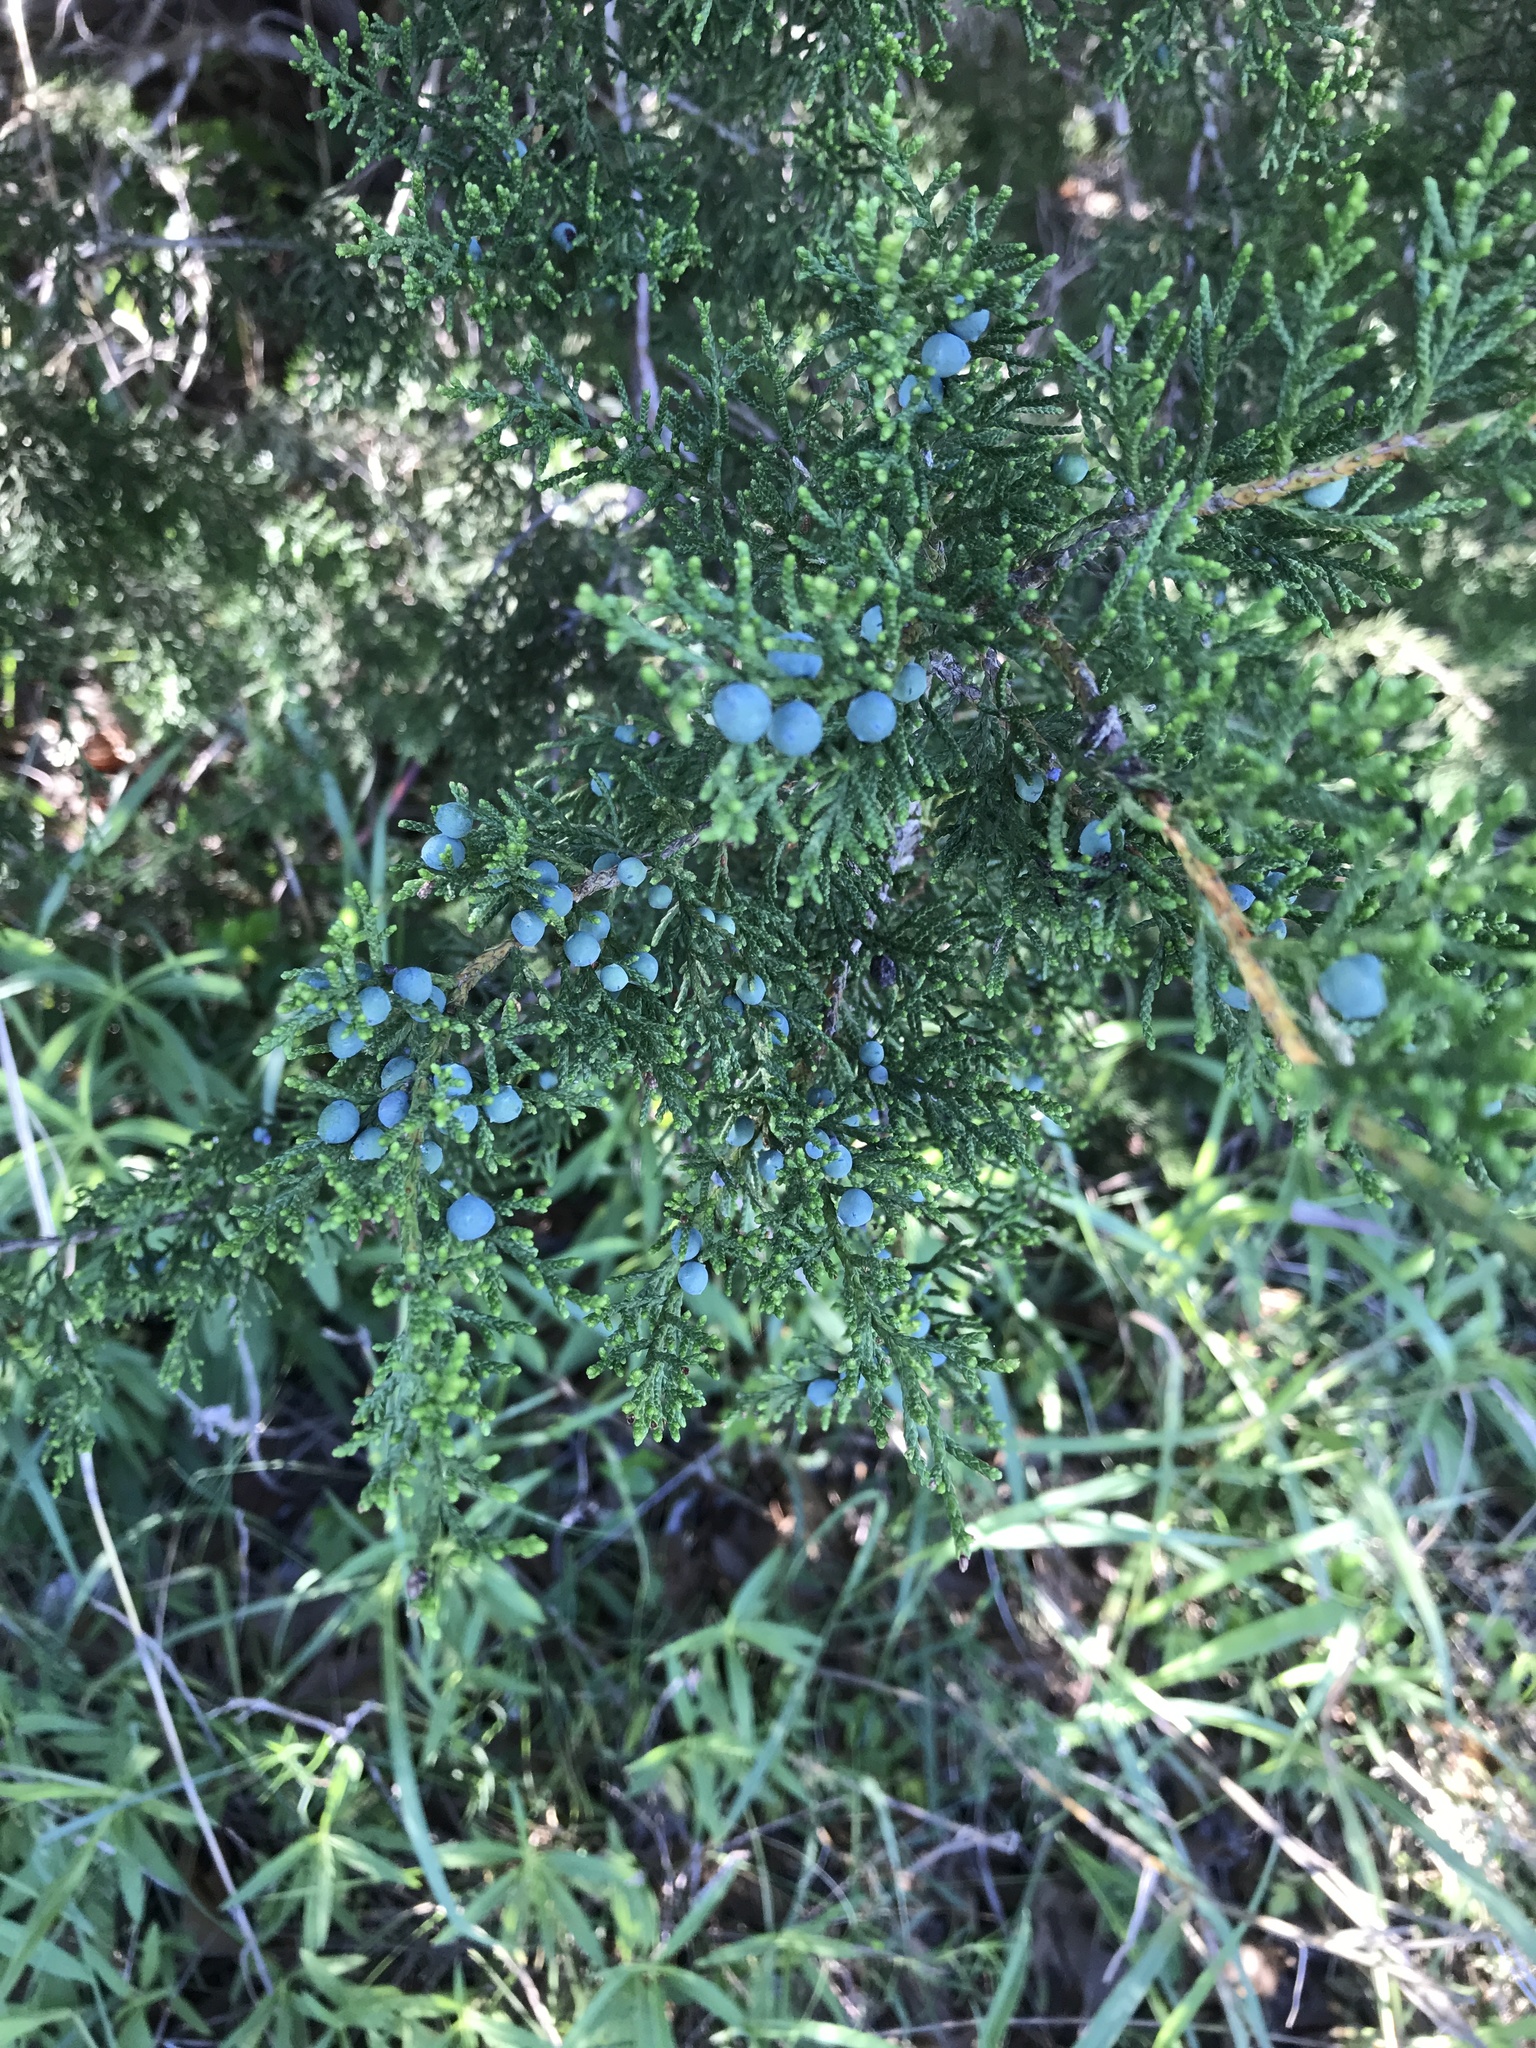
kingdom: Plantae
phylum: Tracheophyta
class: Pinopsida
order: Pinales
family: Cupressaceae
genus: Juniperus
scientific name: Juniperus ashei
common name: Mexican juniper
